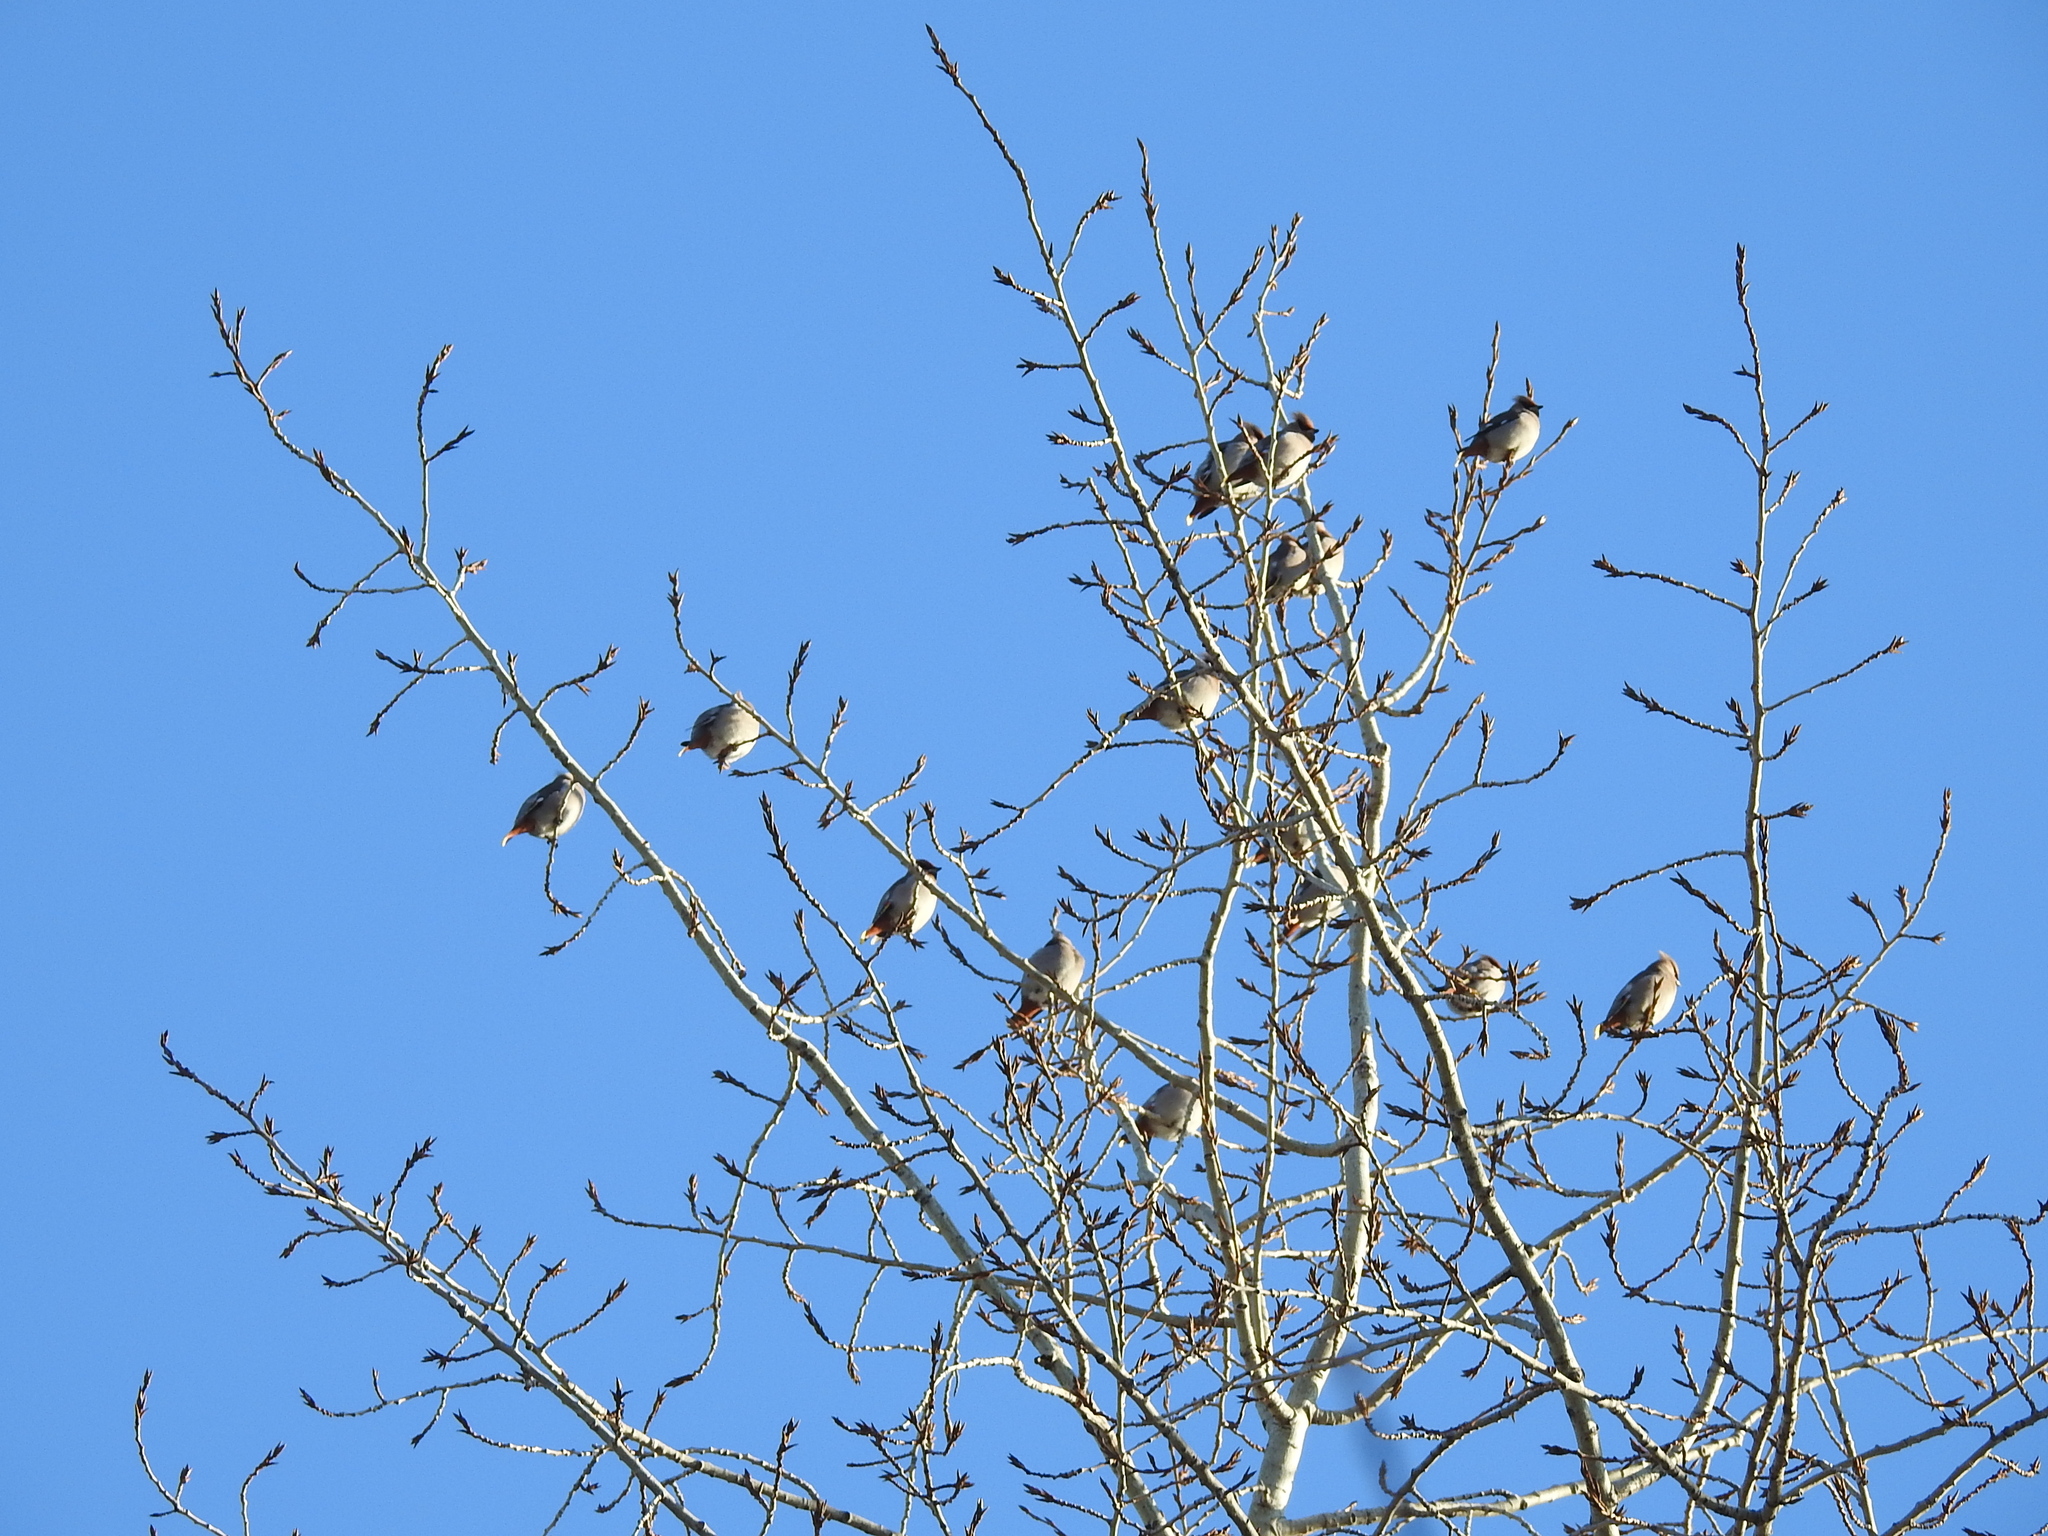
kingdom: Animalia
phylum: Chordata
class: Aves
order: Passeriformes
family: Bombycillidae
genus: Bombycilla
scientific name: Bombycilla garrulus
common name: Bohemian waxwing
